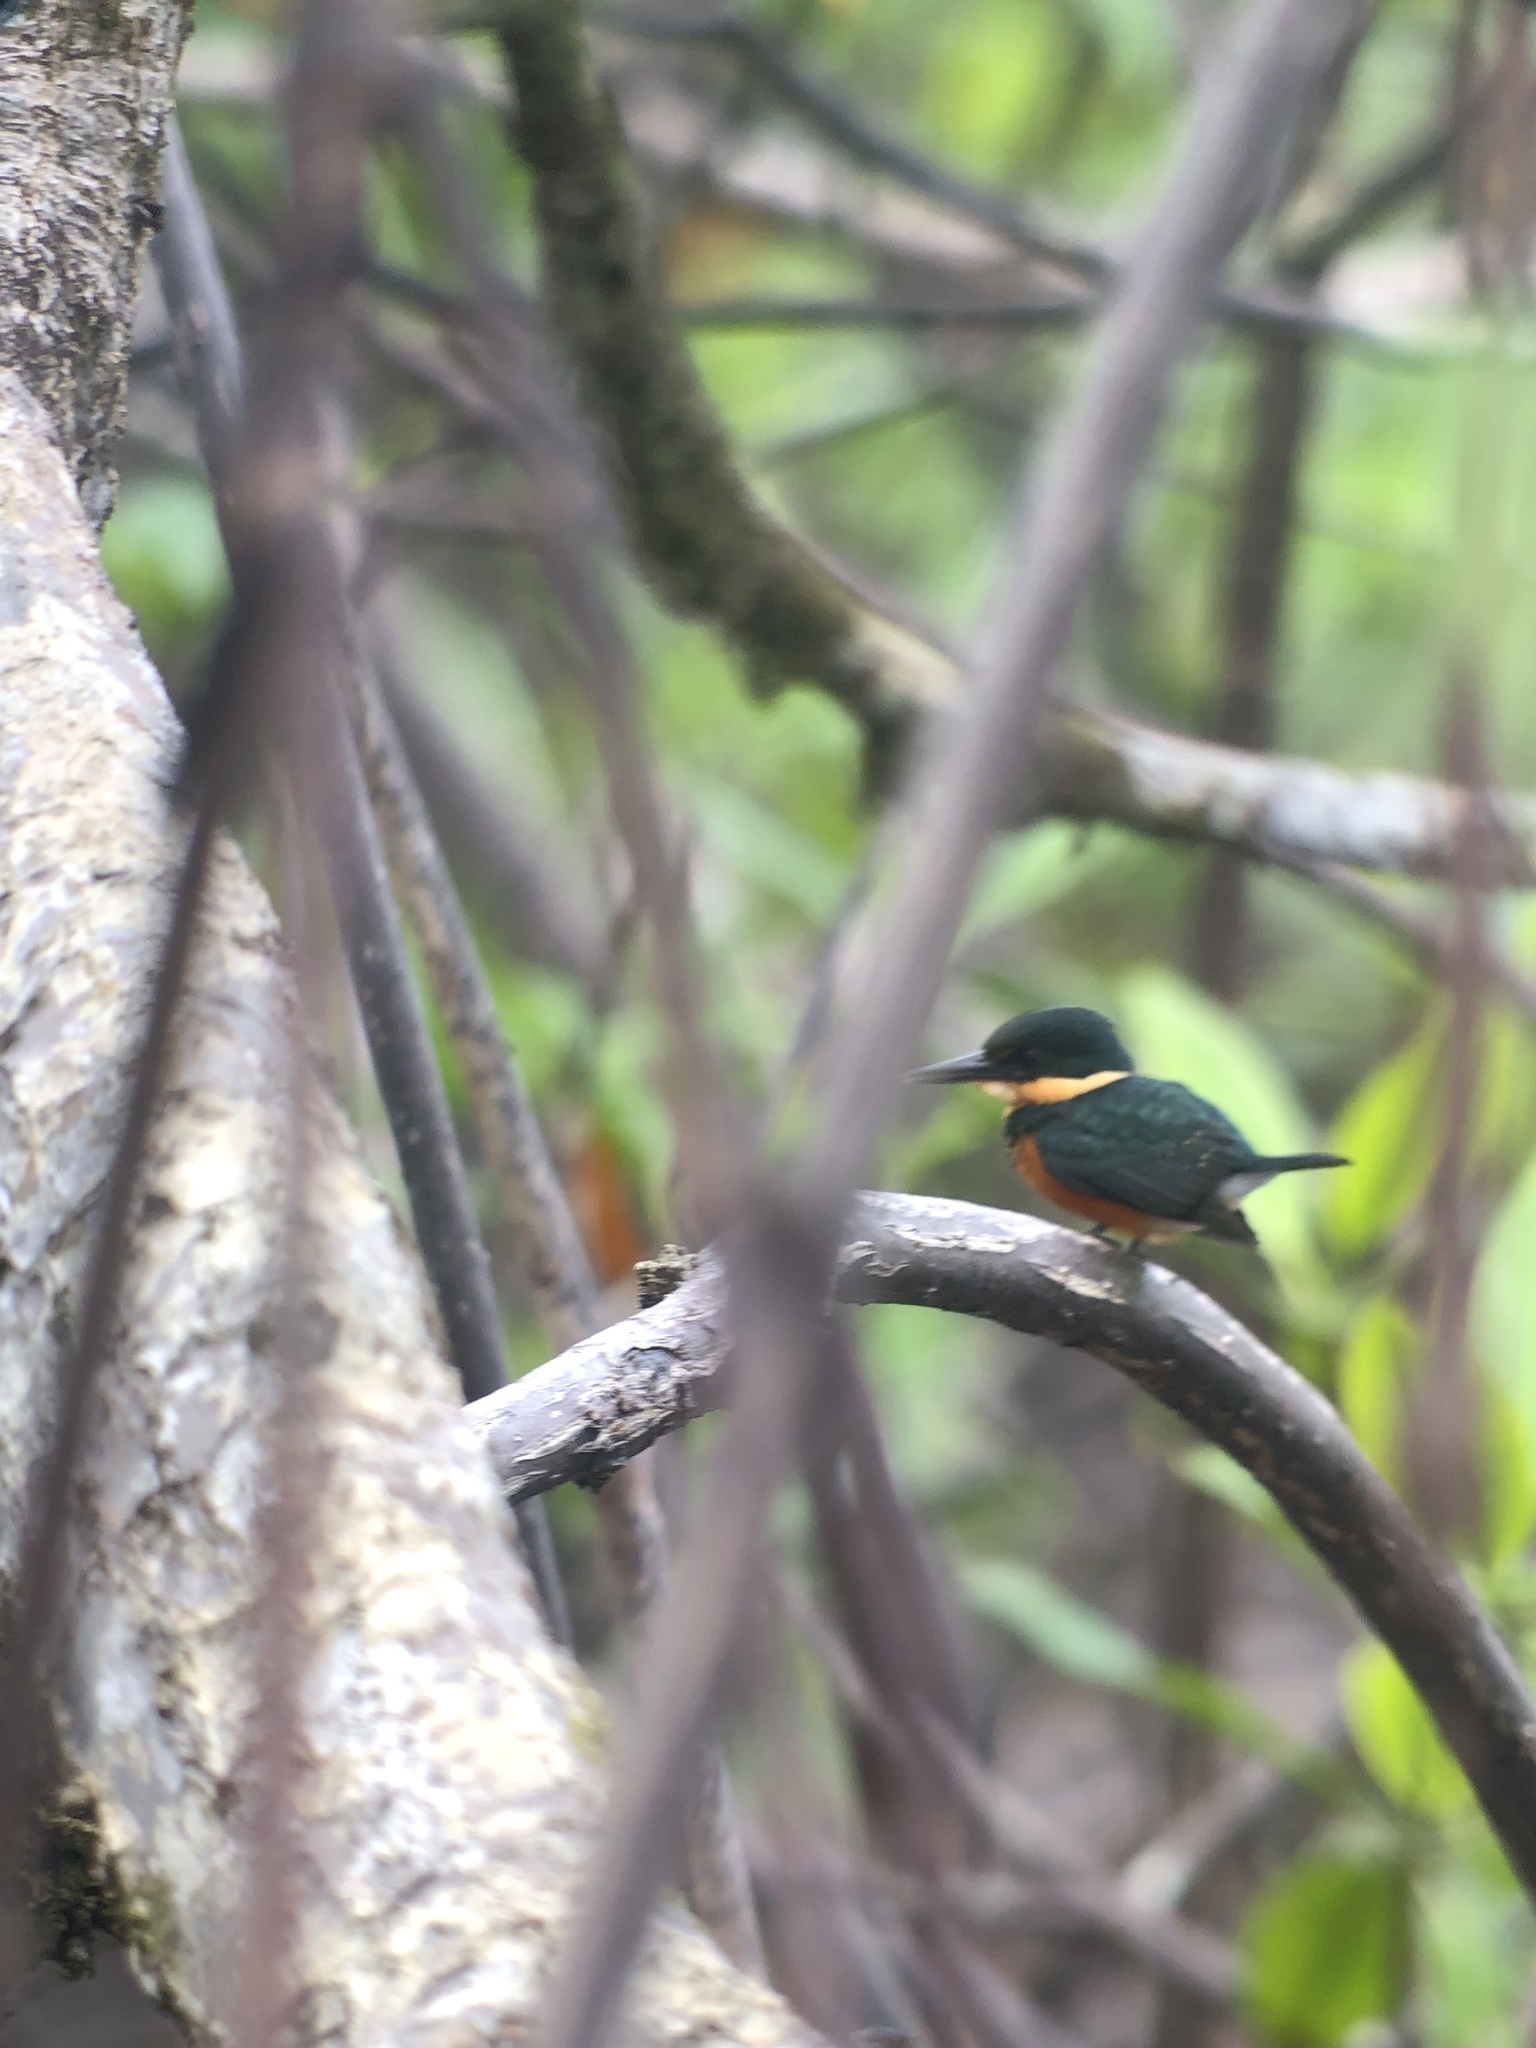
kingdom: Animalia
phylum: Chordata
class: Aves
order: Coraciiformes
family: Alcedinidae
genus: Chloroceryle
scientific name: Chloroceryle aenea
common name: American pygmy kingfisher
